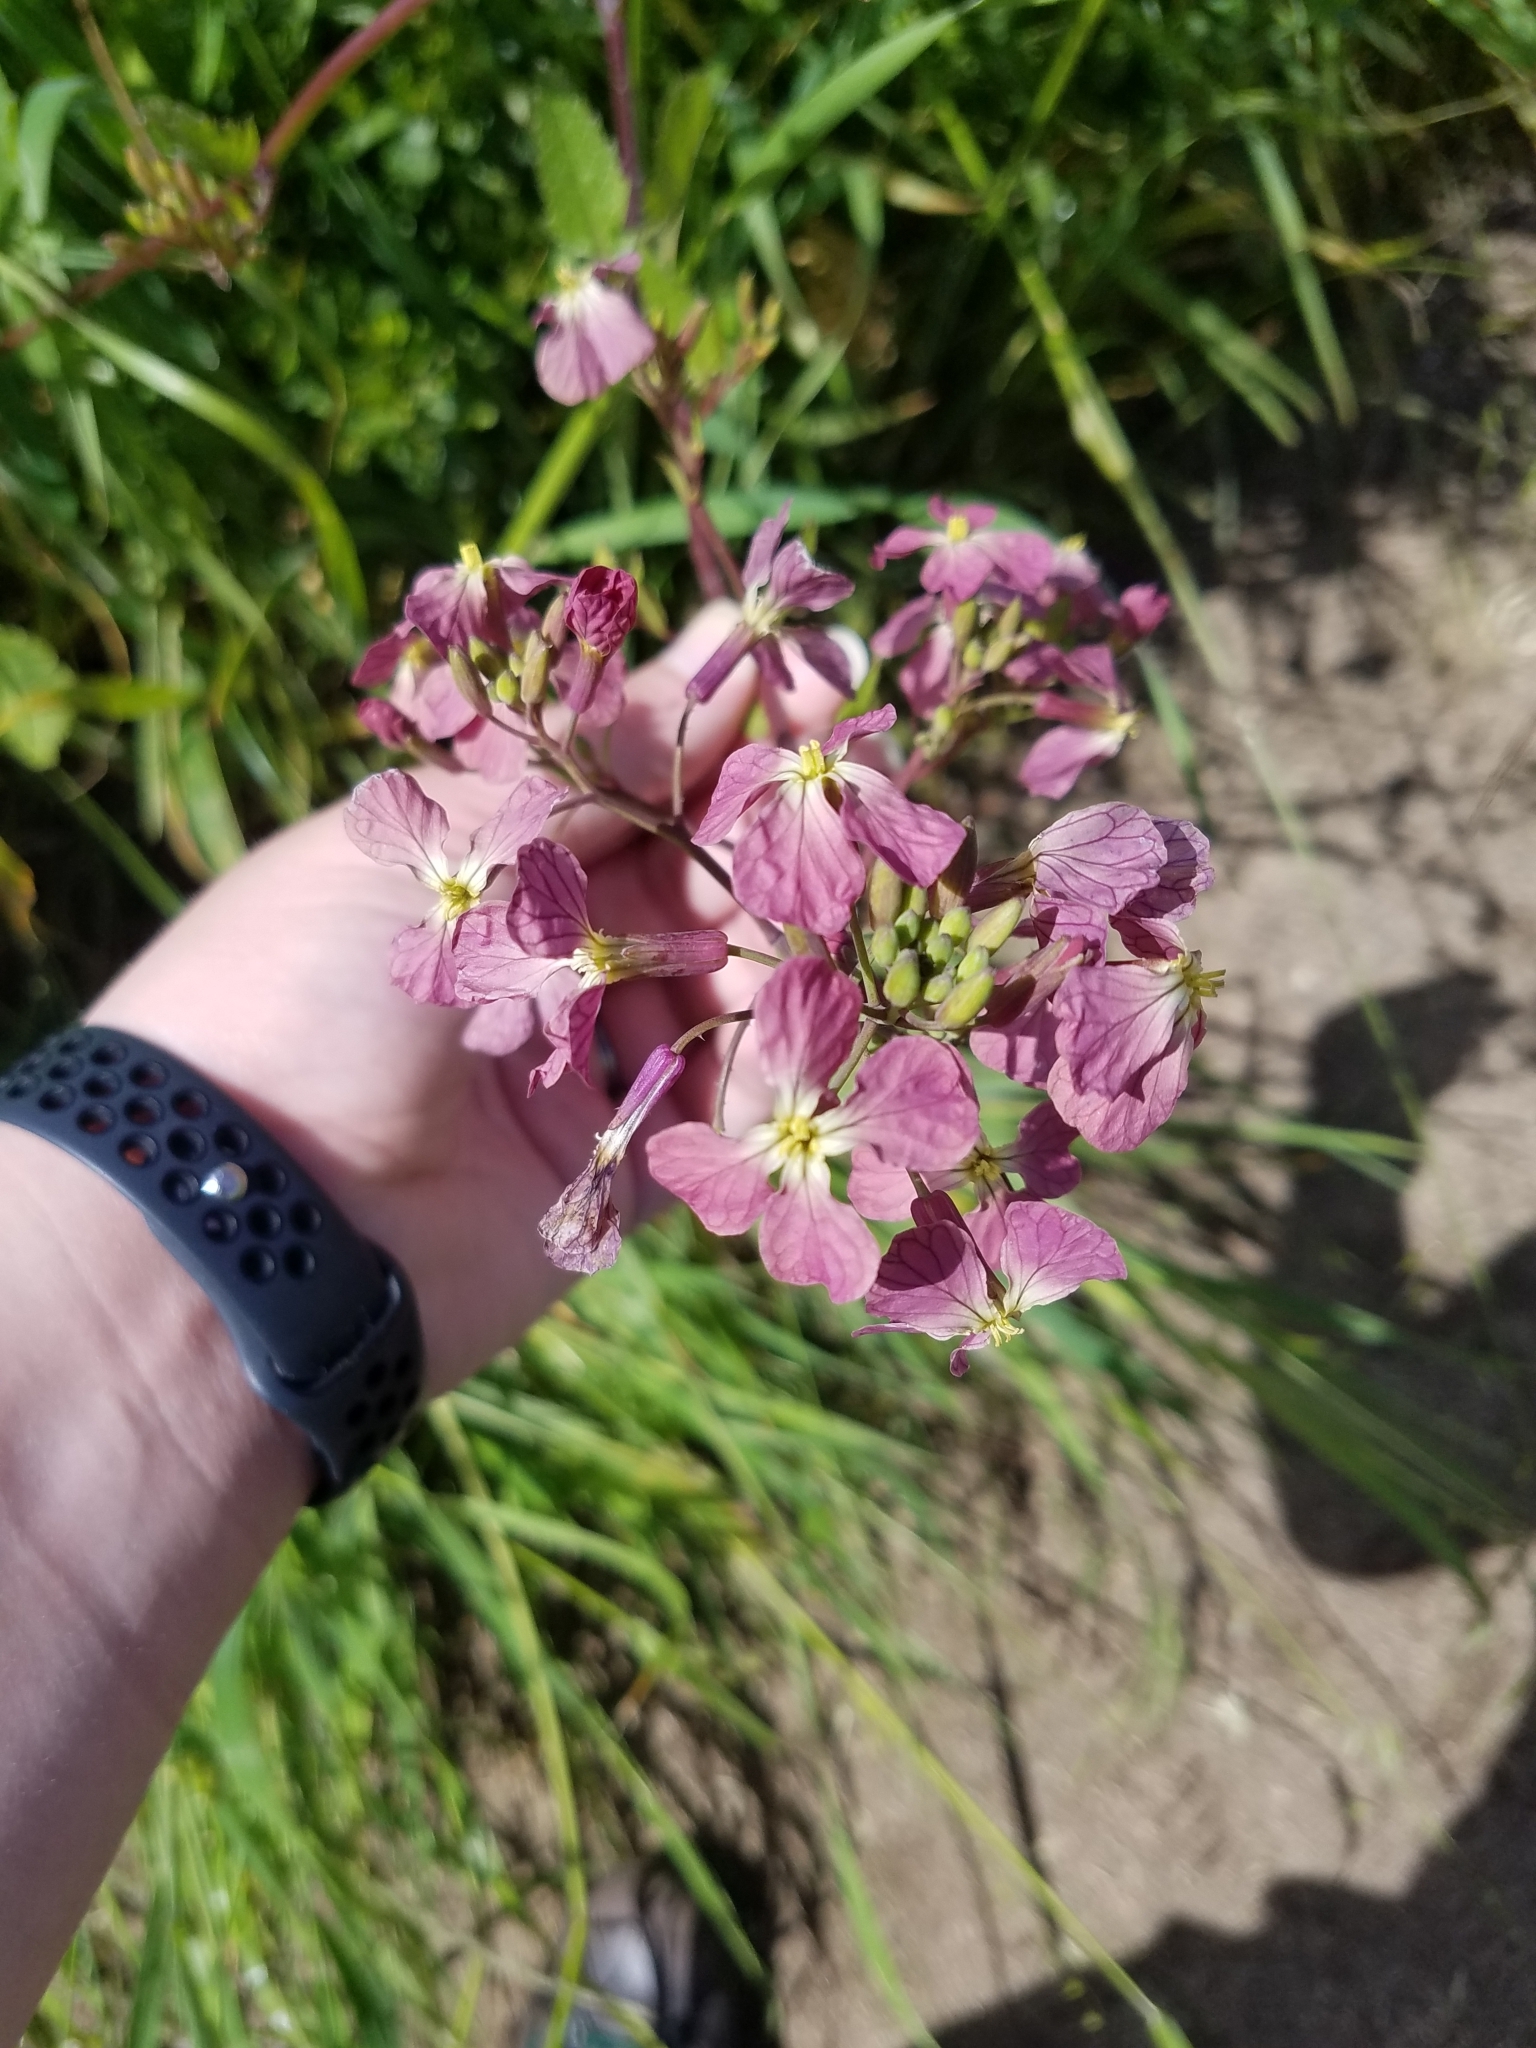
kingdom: Plantae
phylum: Tracheophyta
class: Magnoliopsida
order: Brassicales
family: Brassicaceae
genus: Raphanus
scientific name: Raphanus sativus
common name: Cultivated radish
